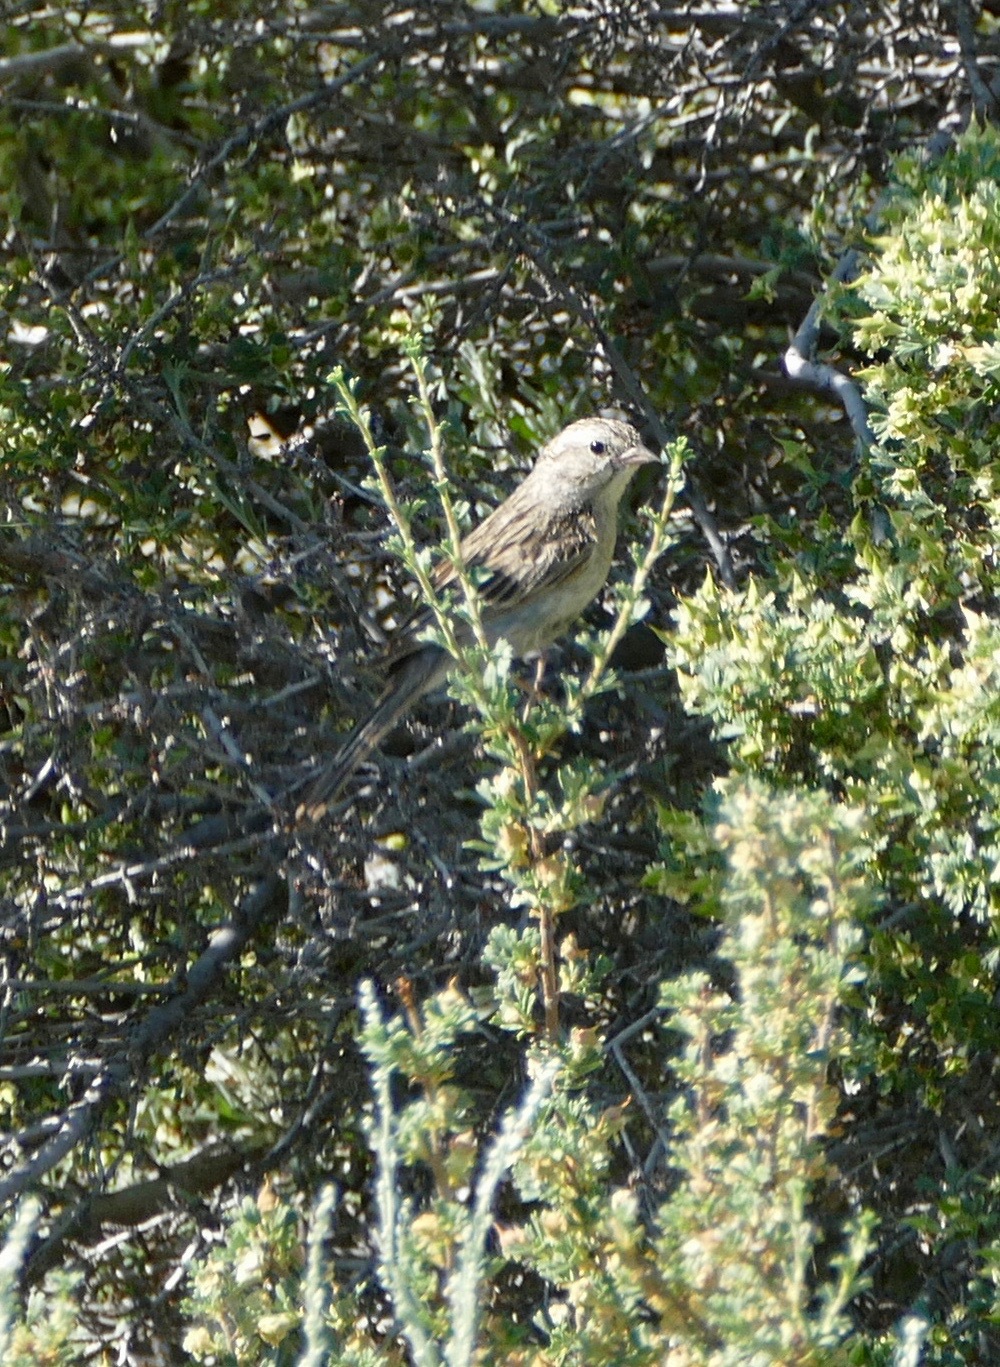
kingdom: Animalia
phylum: Chordata
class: Aves
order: Passeriformes
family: Passerellidae
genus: Spizella
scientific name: Spizella breweri
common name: Brewer's sparrow
